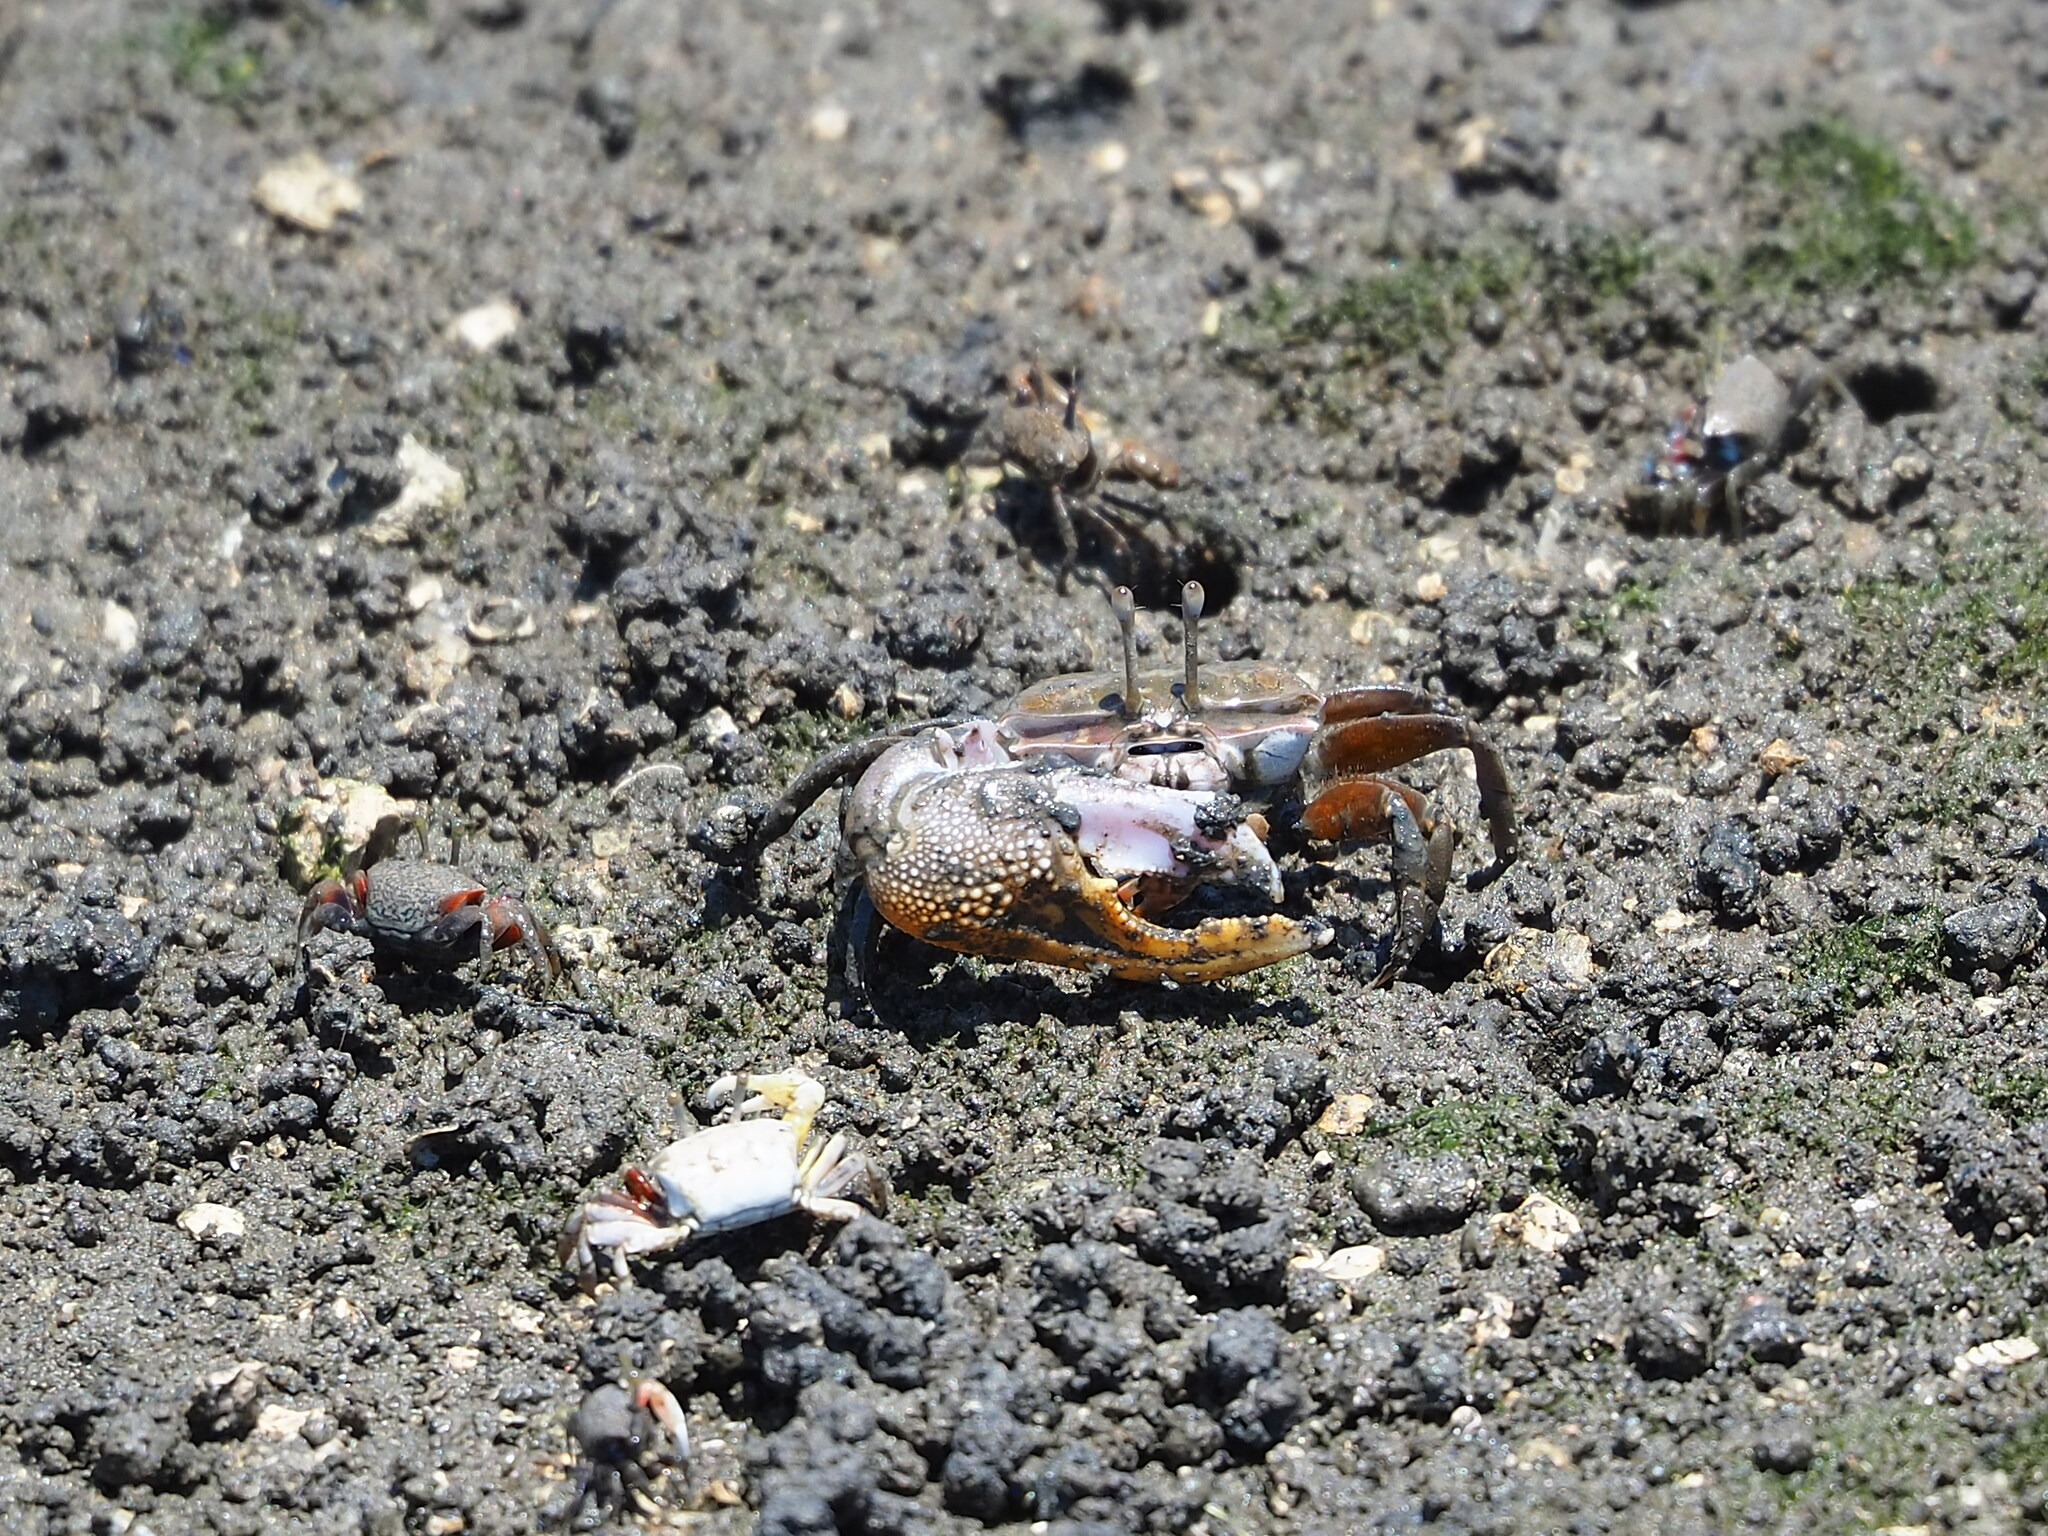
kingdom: Animalia
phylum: Arthropoda
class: Malacostraca
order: Decapoda
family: Ocypodidae
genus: Gelasimus
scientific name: Gelasimus borealis
